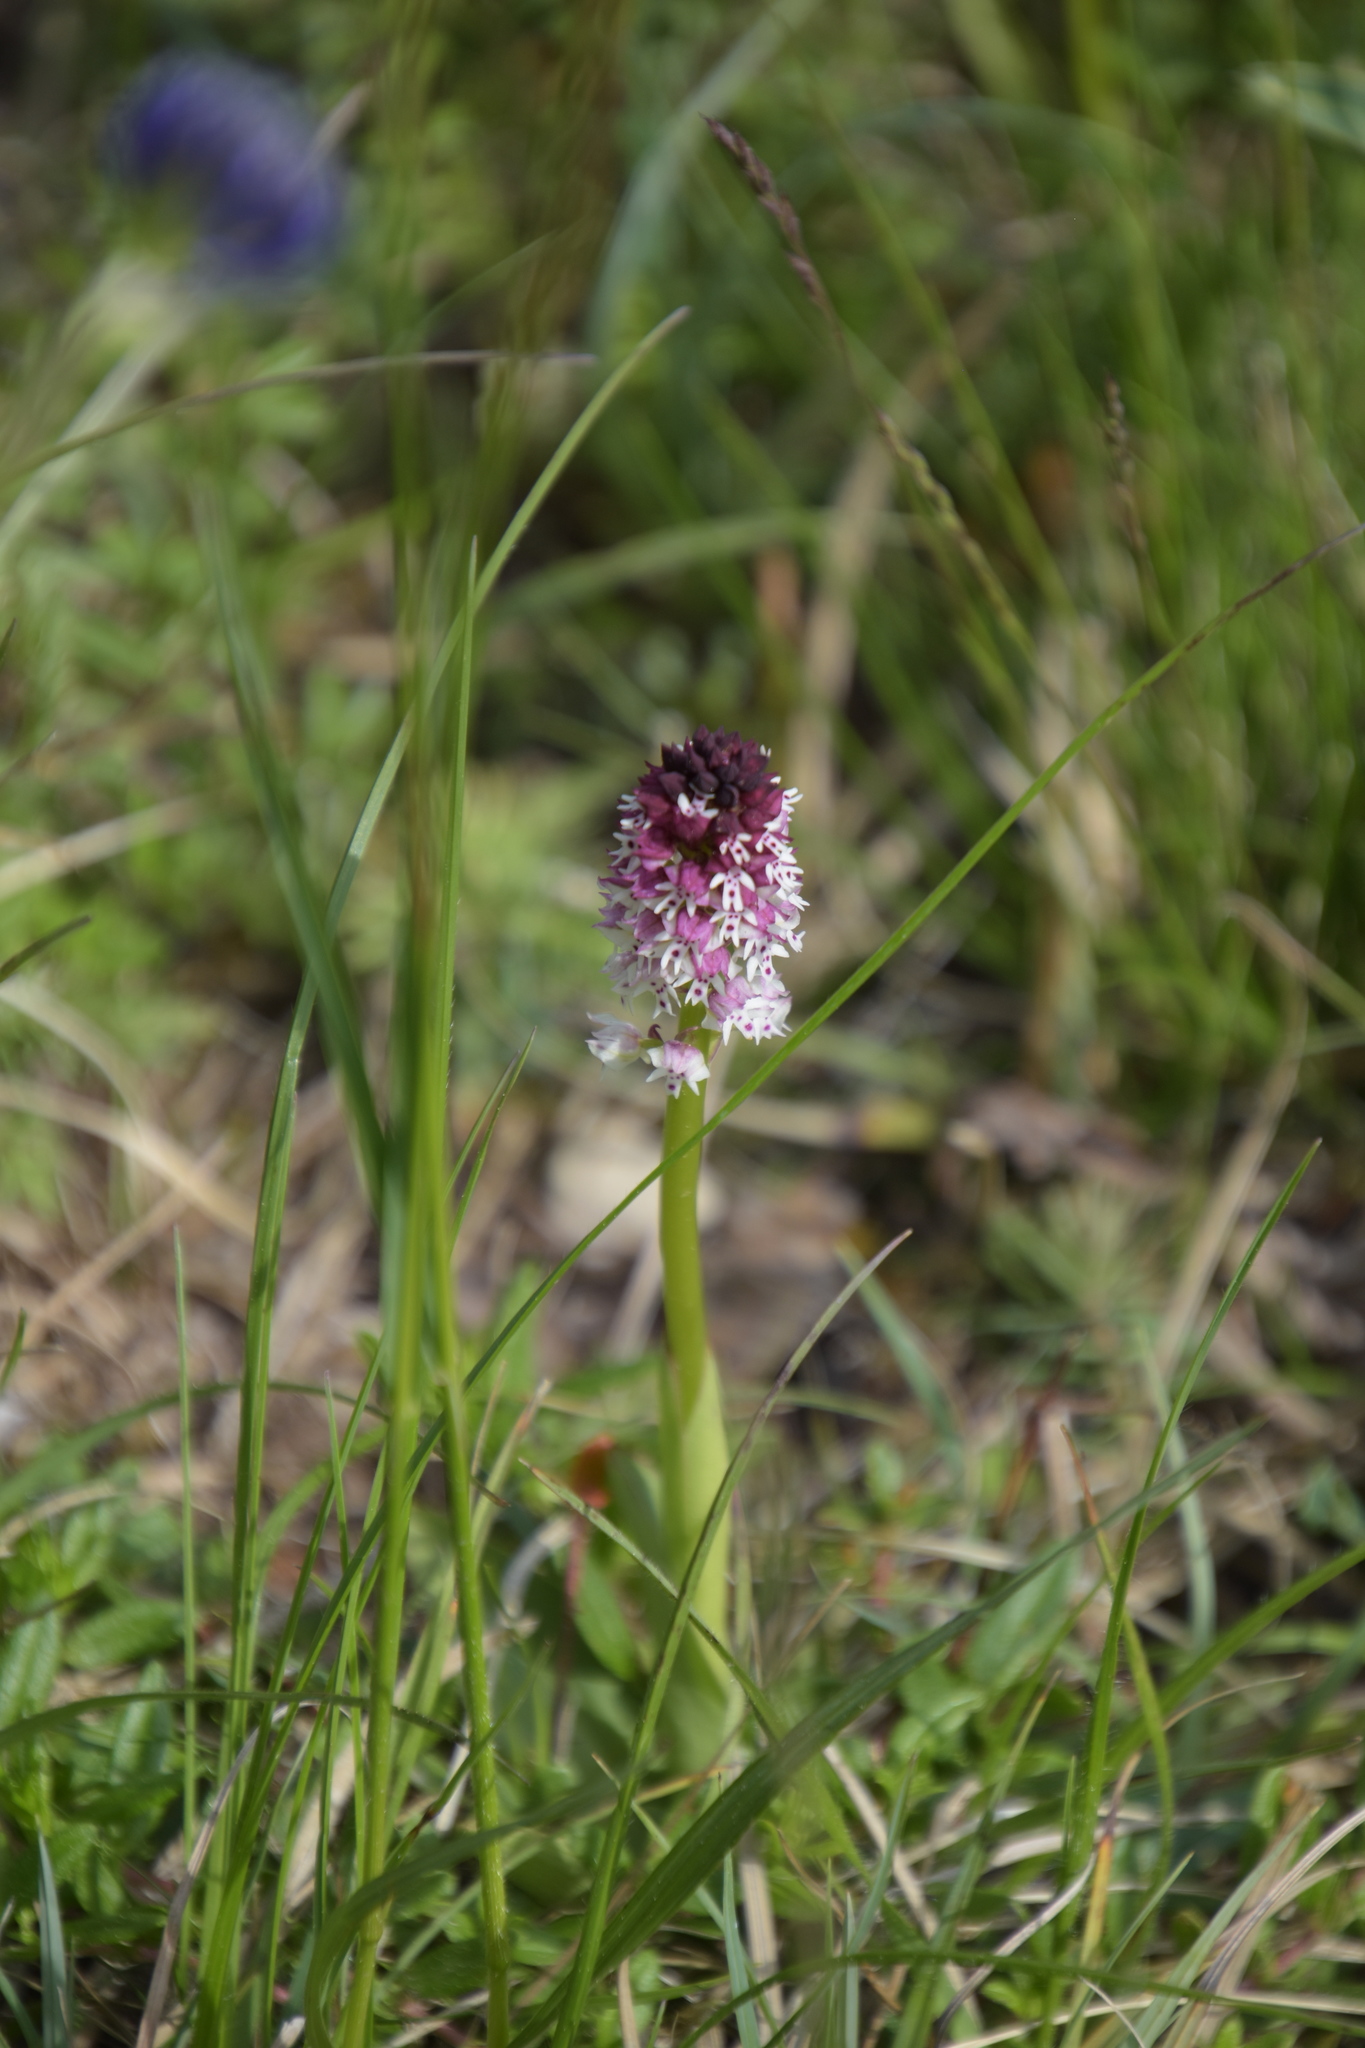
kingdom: Plantae
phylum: Tracheophyta
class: Liliopsida
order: Asparagales
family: Orchidaceae
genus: Neotinea
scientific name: Neotinea ustulata
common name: Burnt orchid
